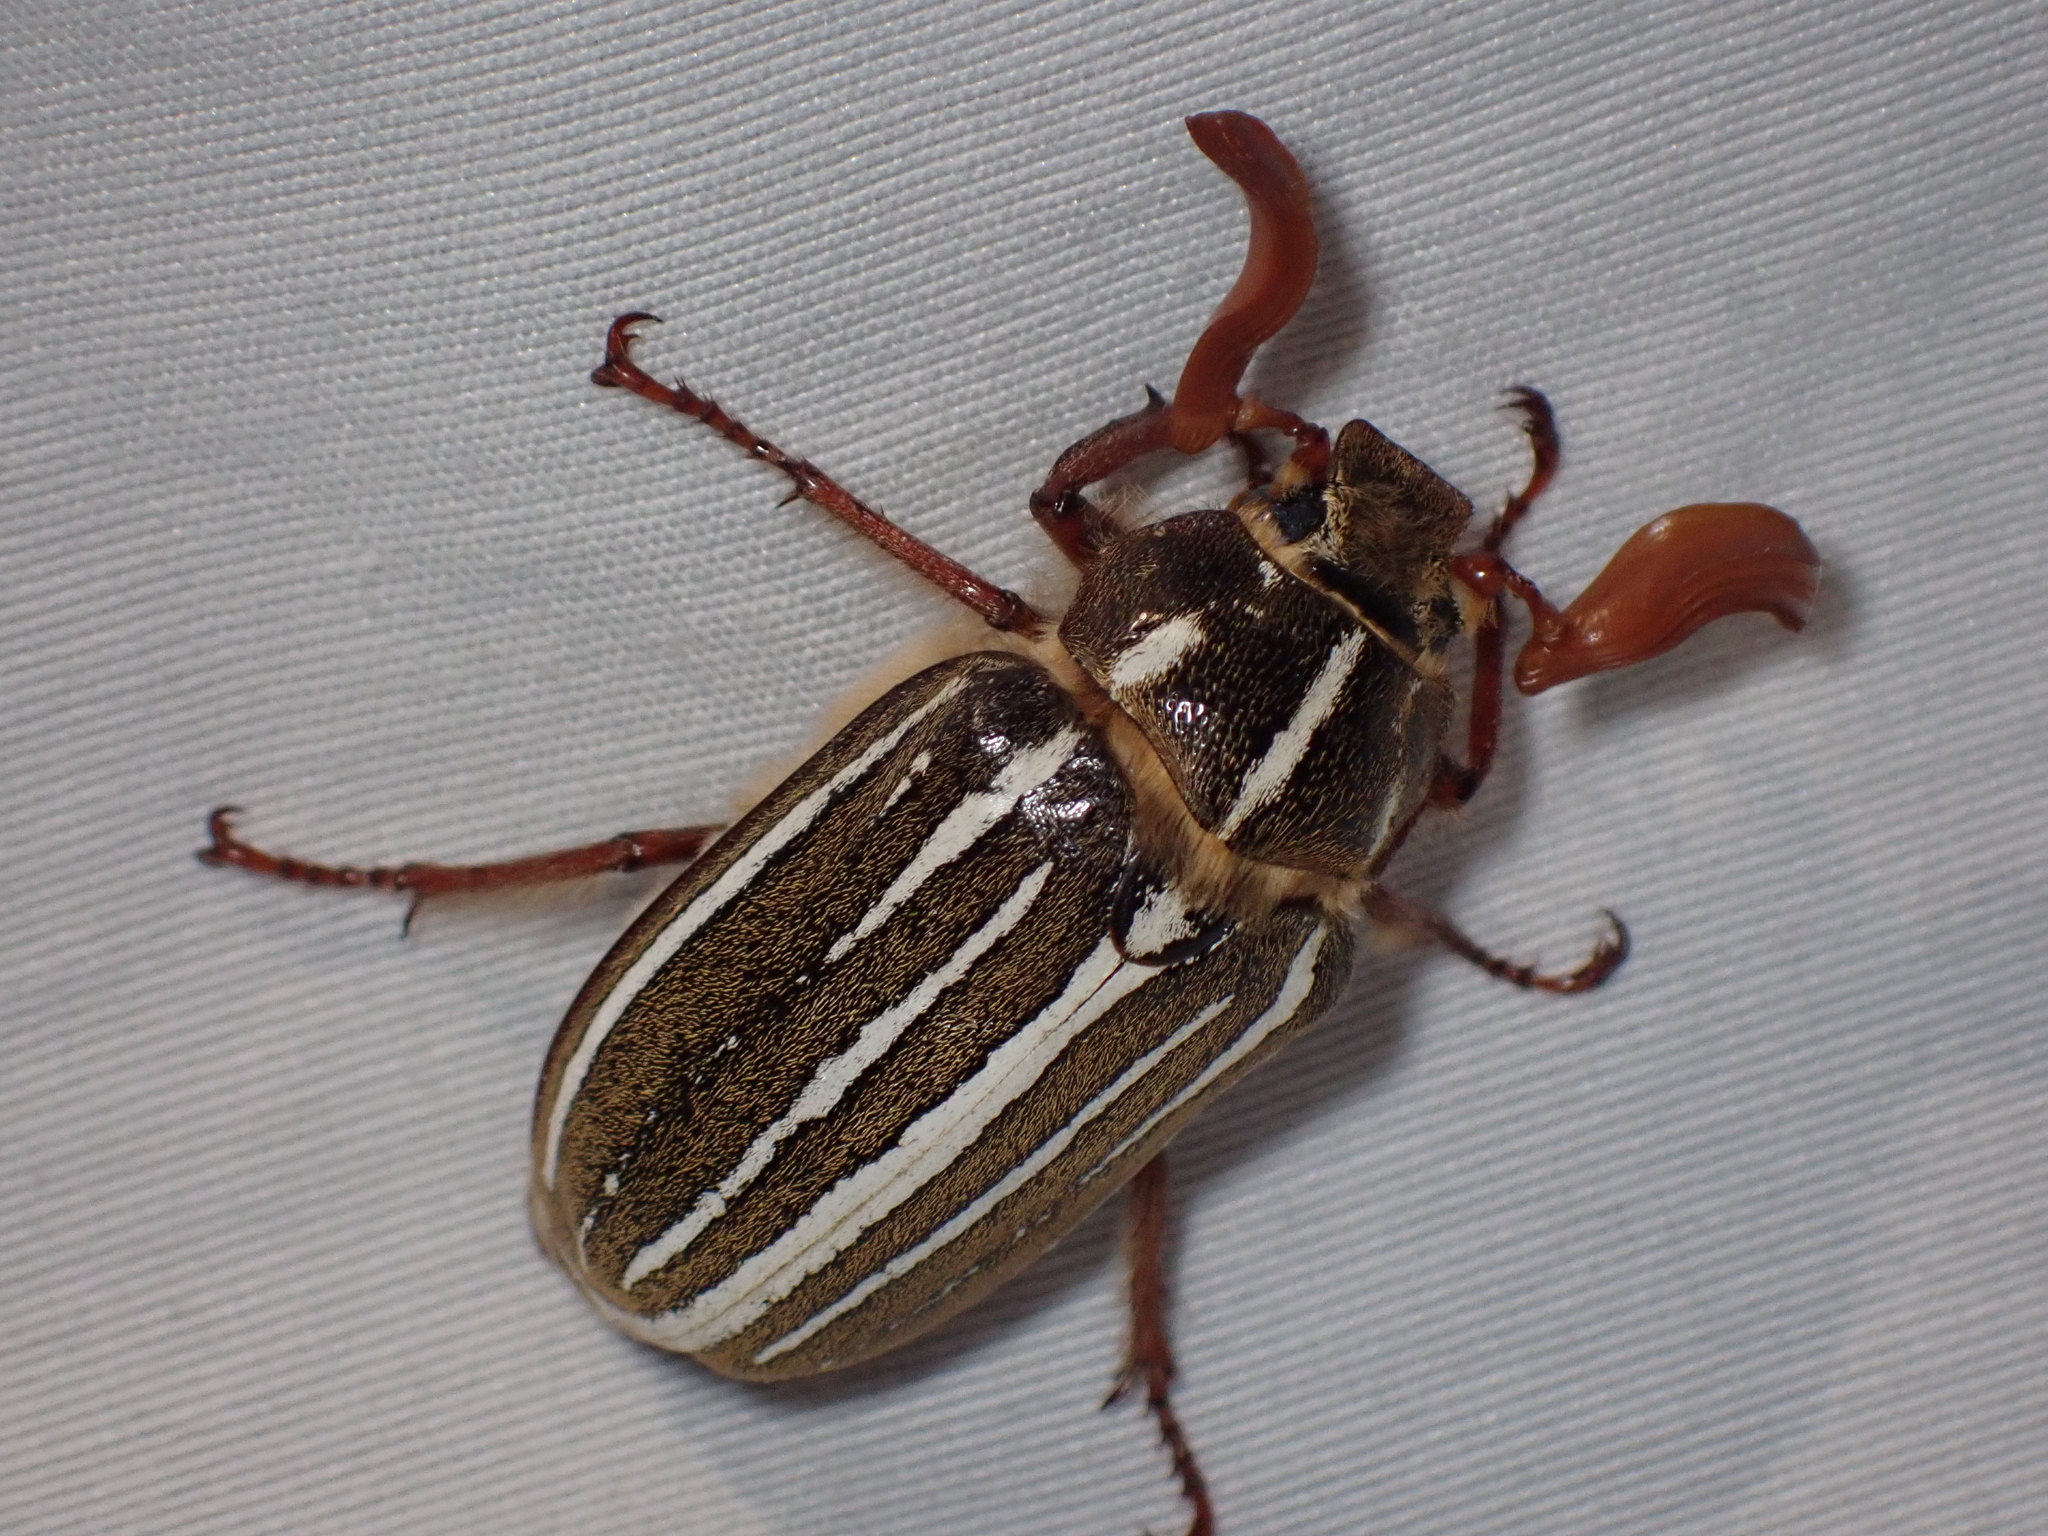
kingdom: Animalia
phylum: Arthropoda
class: Insecta
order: Coleoptera
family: Scarabaeidae
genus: Polyphylla
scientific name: Polyphylla crinita
